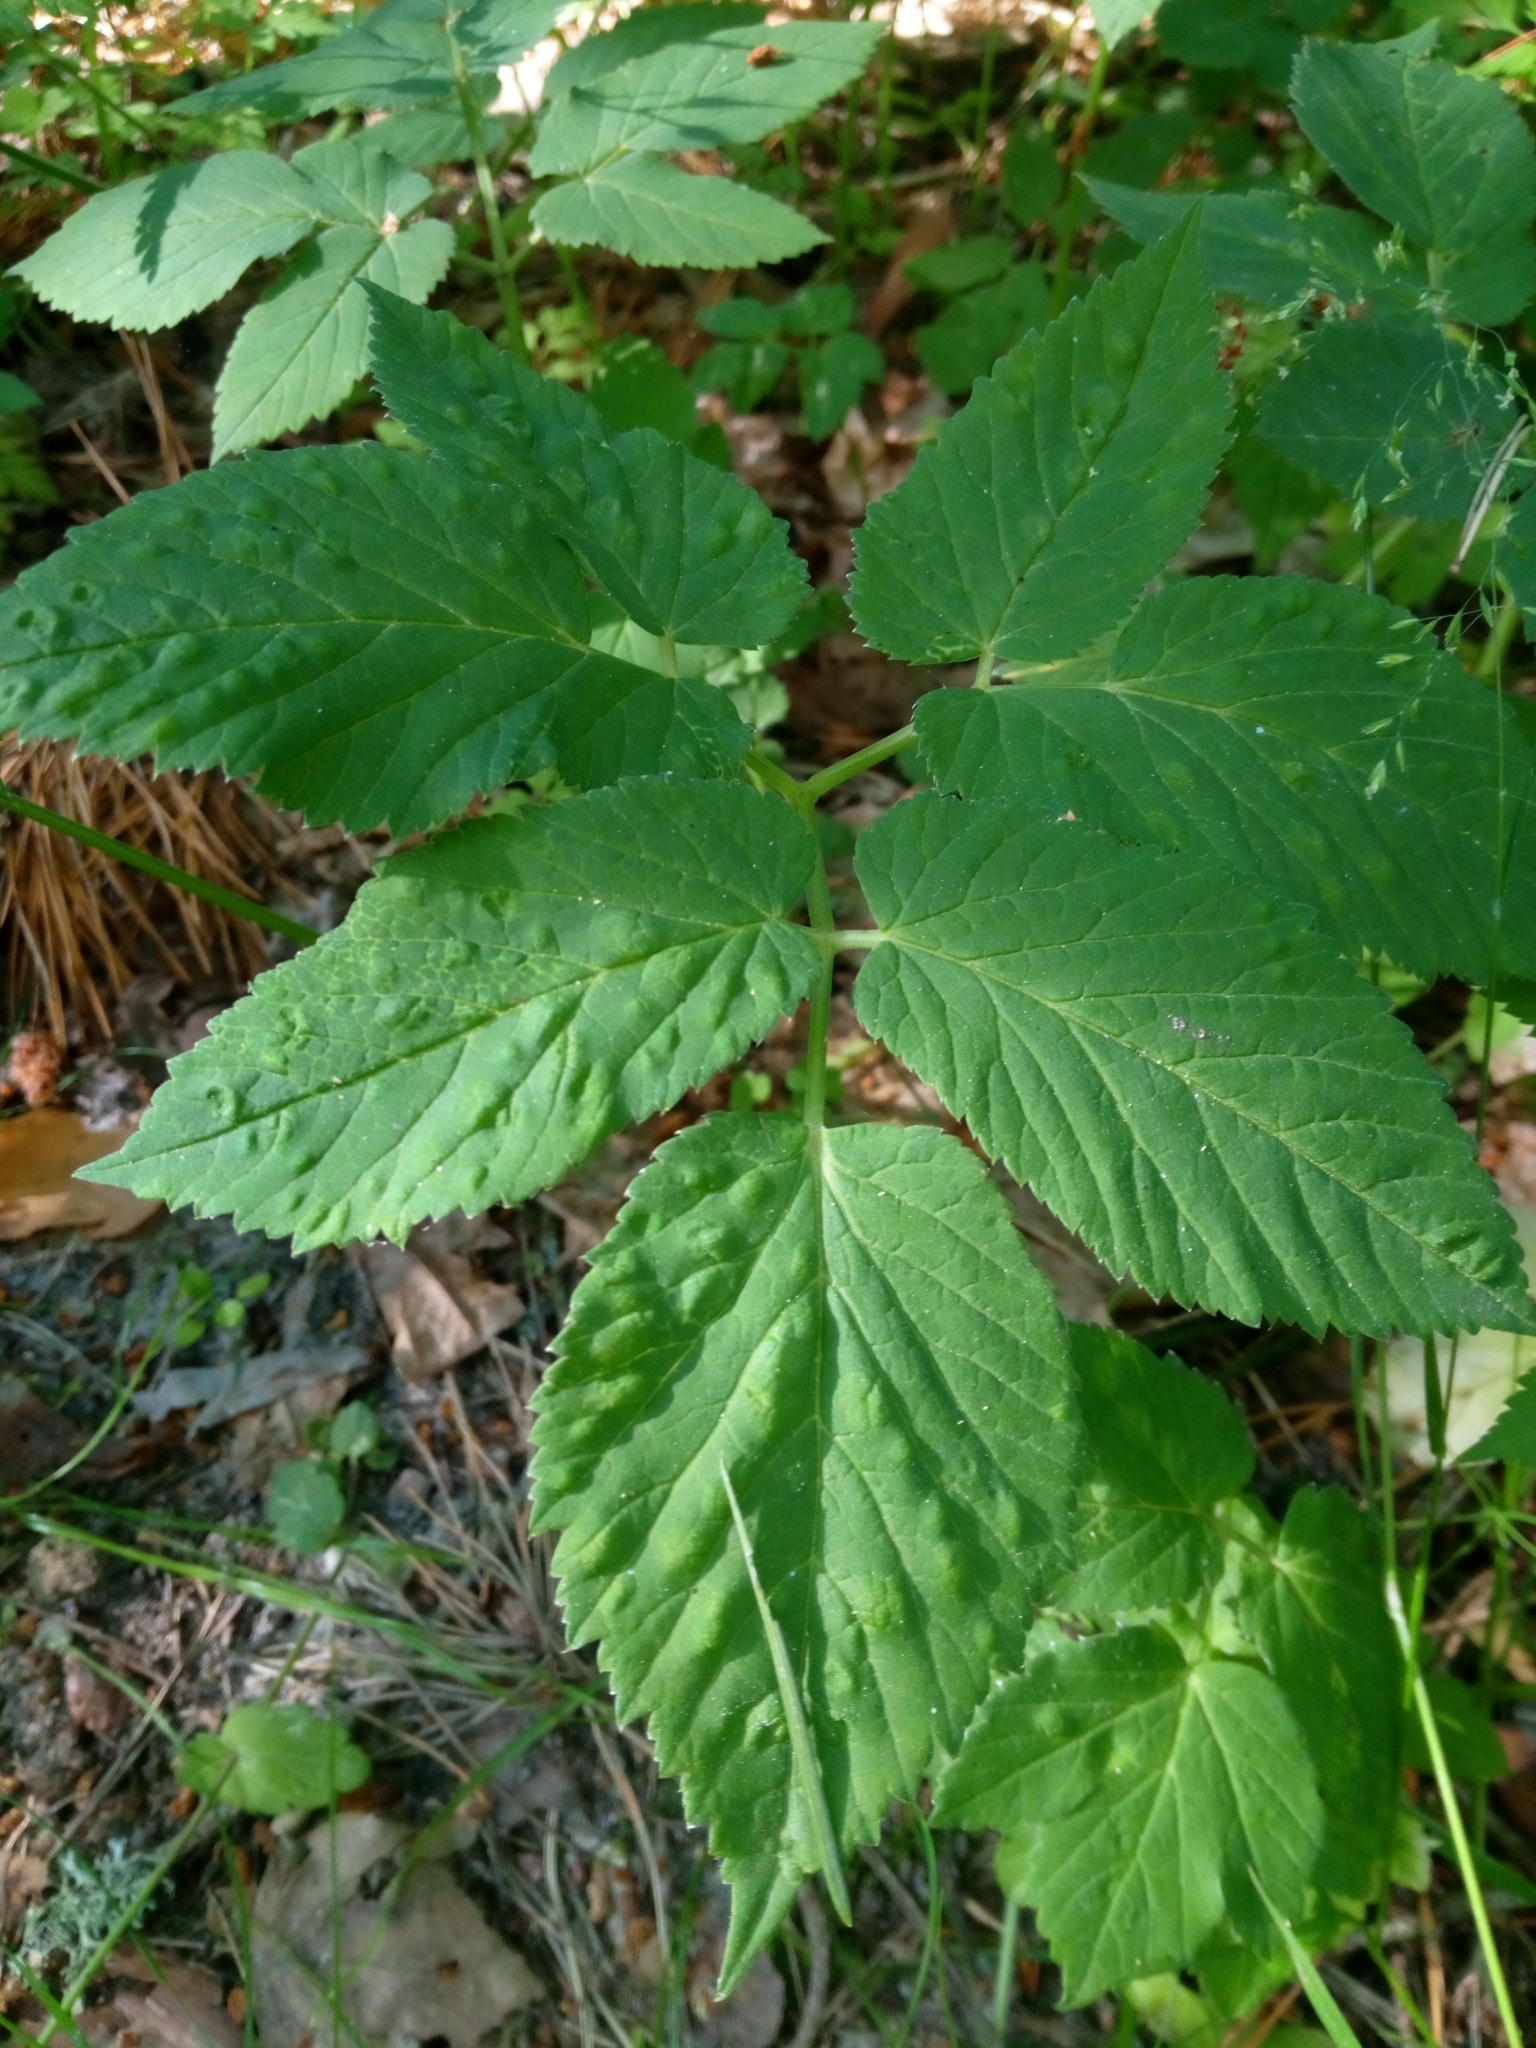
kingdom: Plantae
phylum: Tracheophyta
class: Magnoliopsida
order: Apiales
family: Apiaceae
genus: Aegopodium
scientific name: Aegopodium podagraria
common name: Ground-elder
